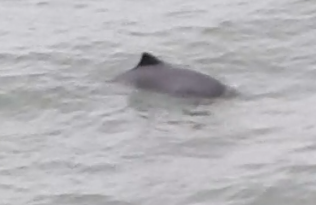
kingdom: Animalia
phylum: Chordata
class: Mammalia
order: Cetacea
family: Phocoenidae
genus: Phocoena
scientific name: Phocoena phocoena
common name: Harbor porpoise
